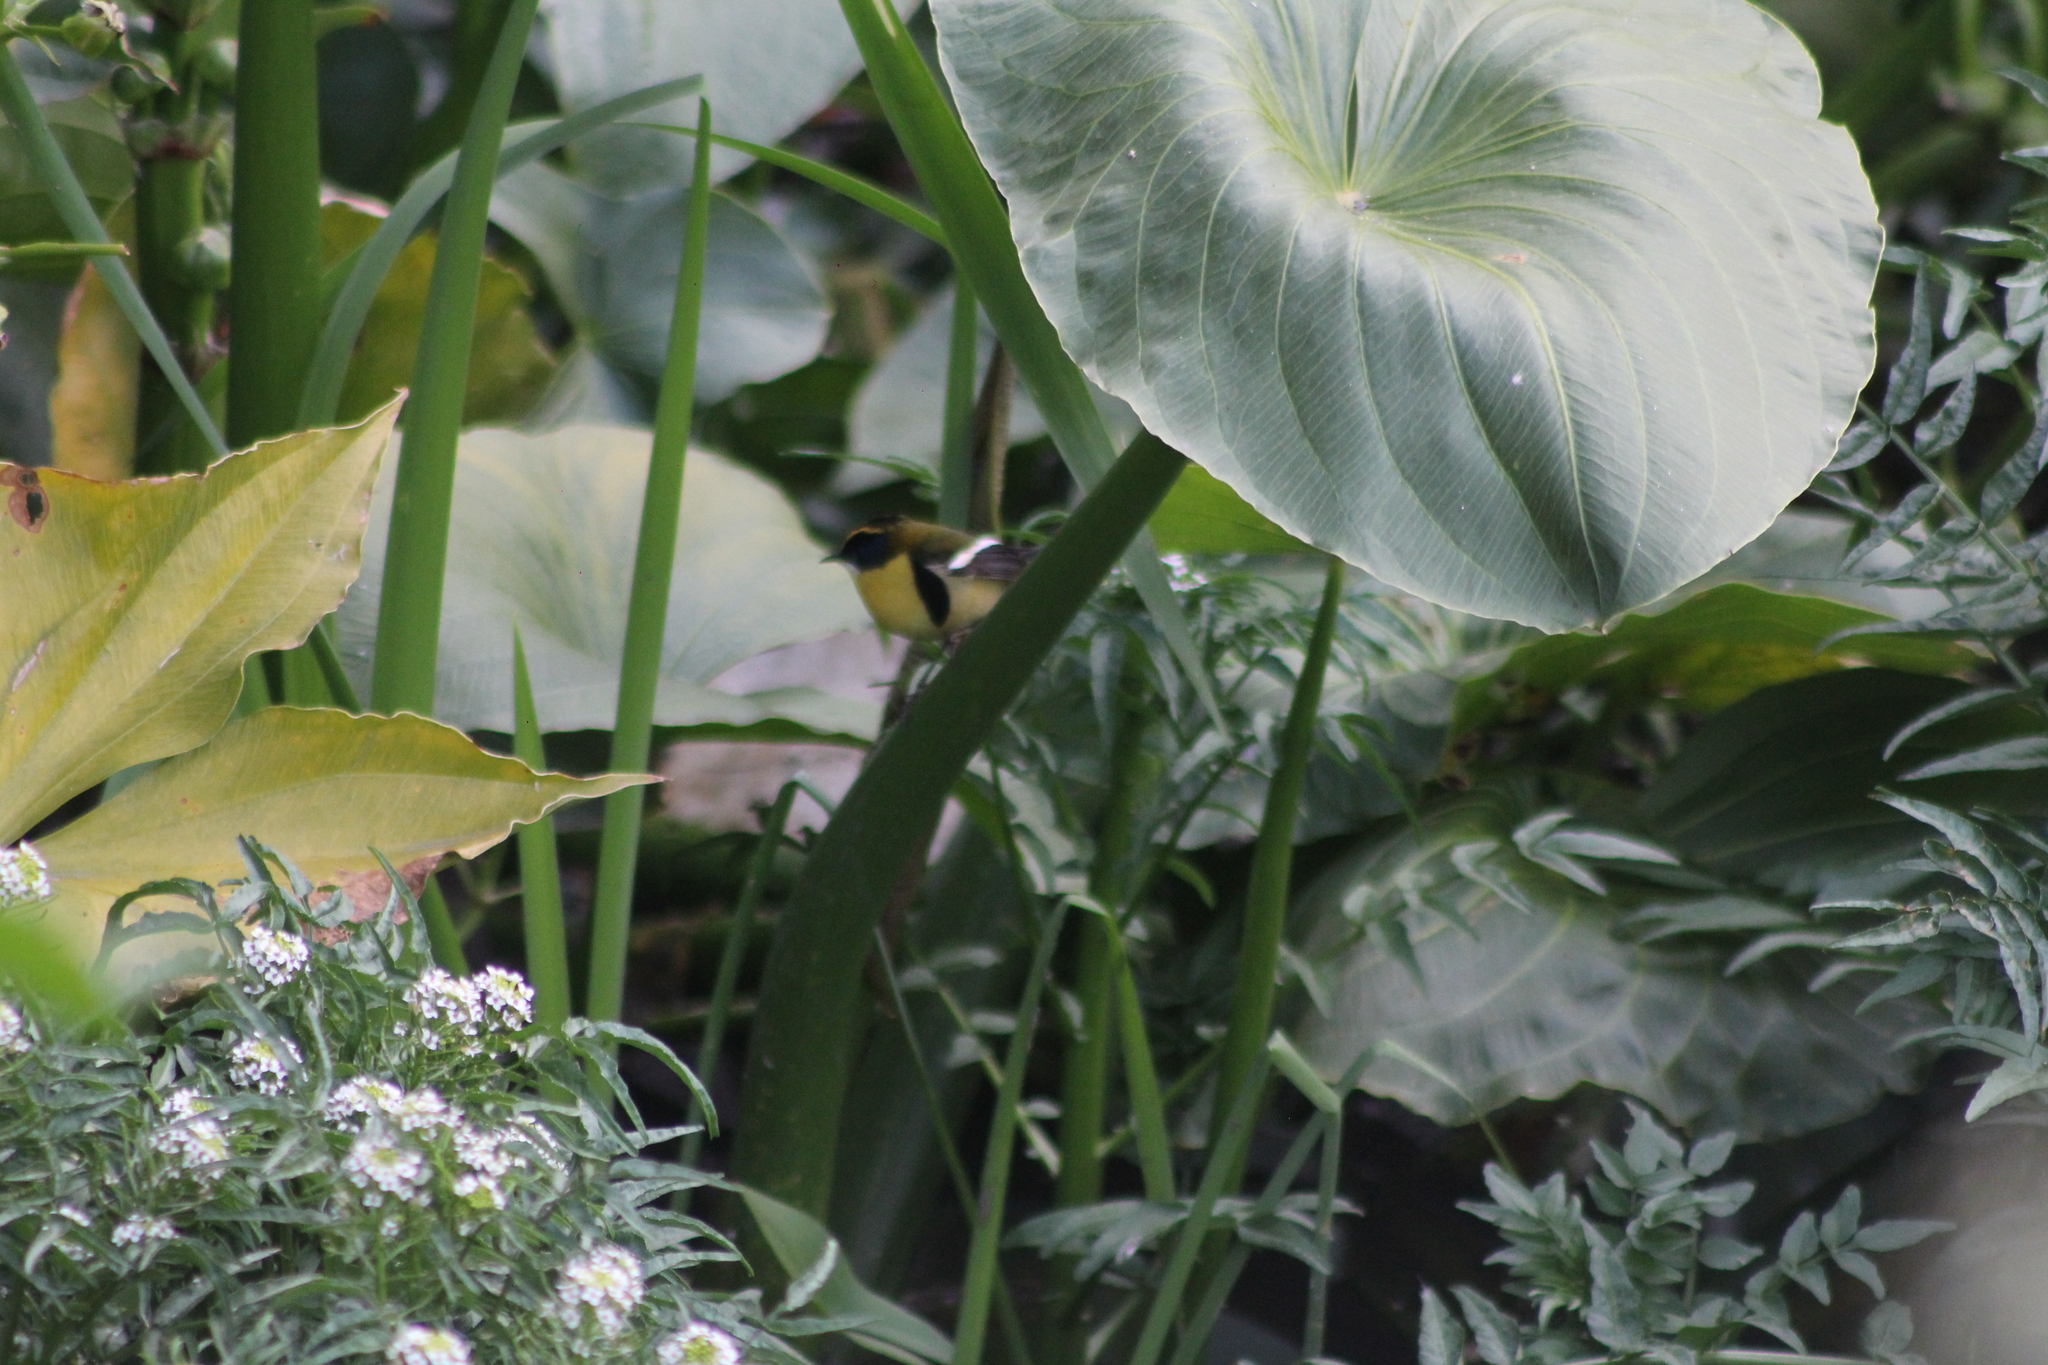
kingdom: Animalia
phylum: Chordata
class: Aves
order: Passeriformes
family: Tyrannidae
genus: Tachuris
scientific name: Tachuris rubrigastra
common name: Many-colored rush tyrant
